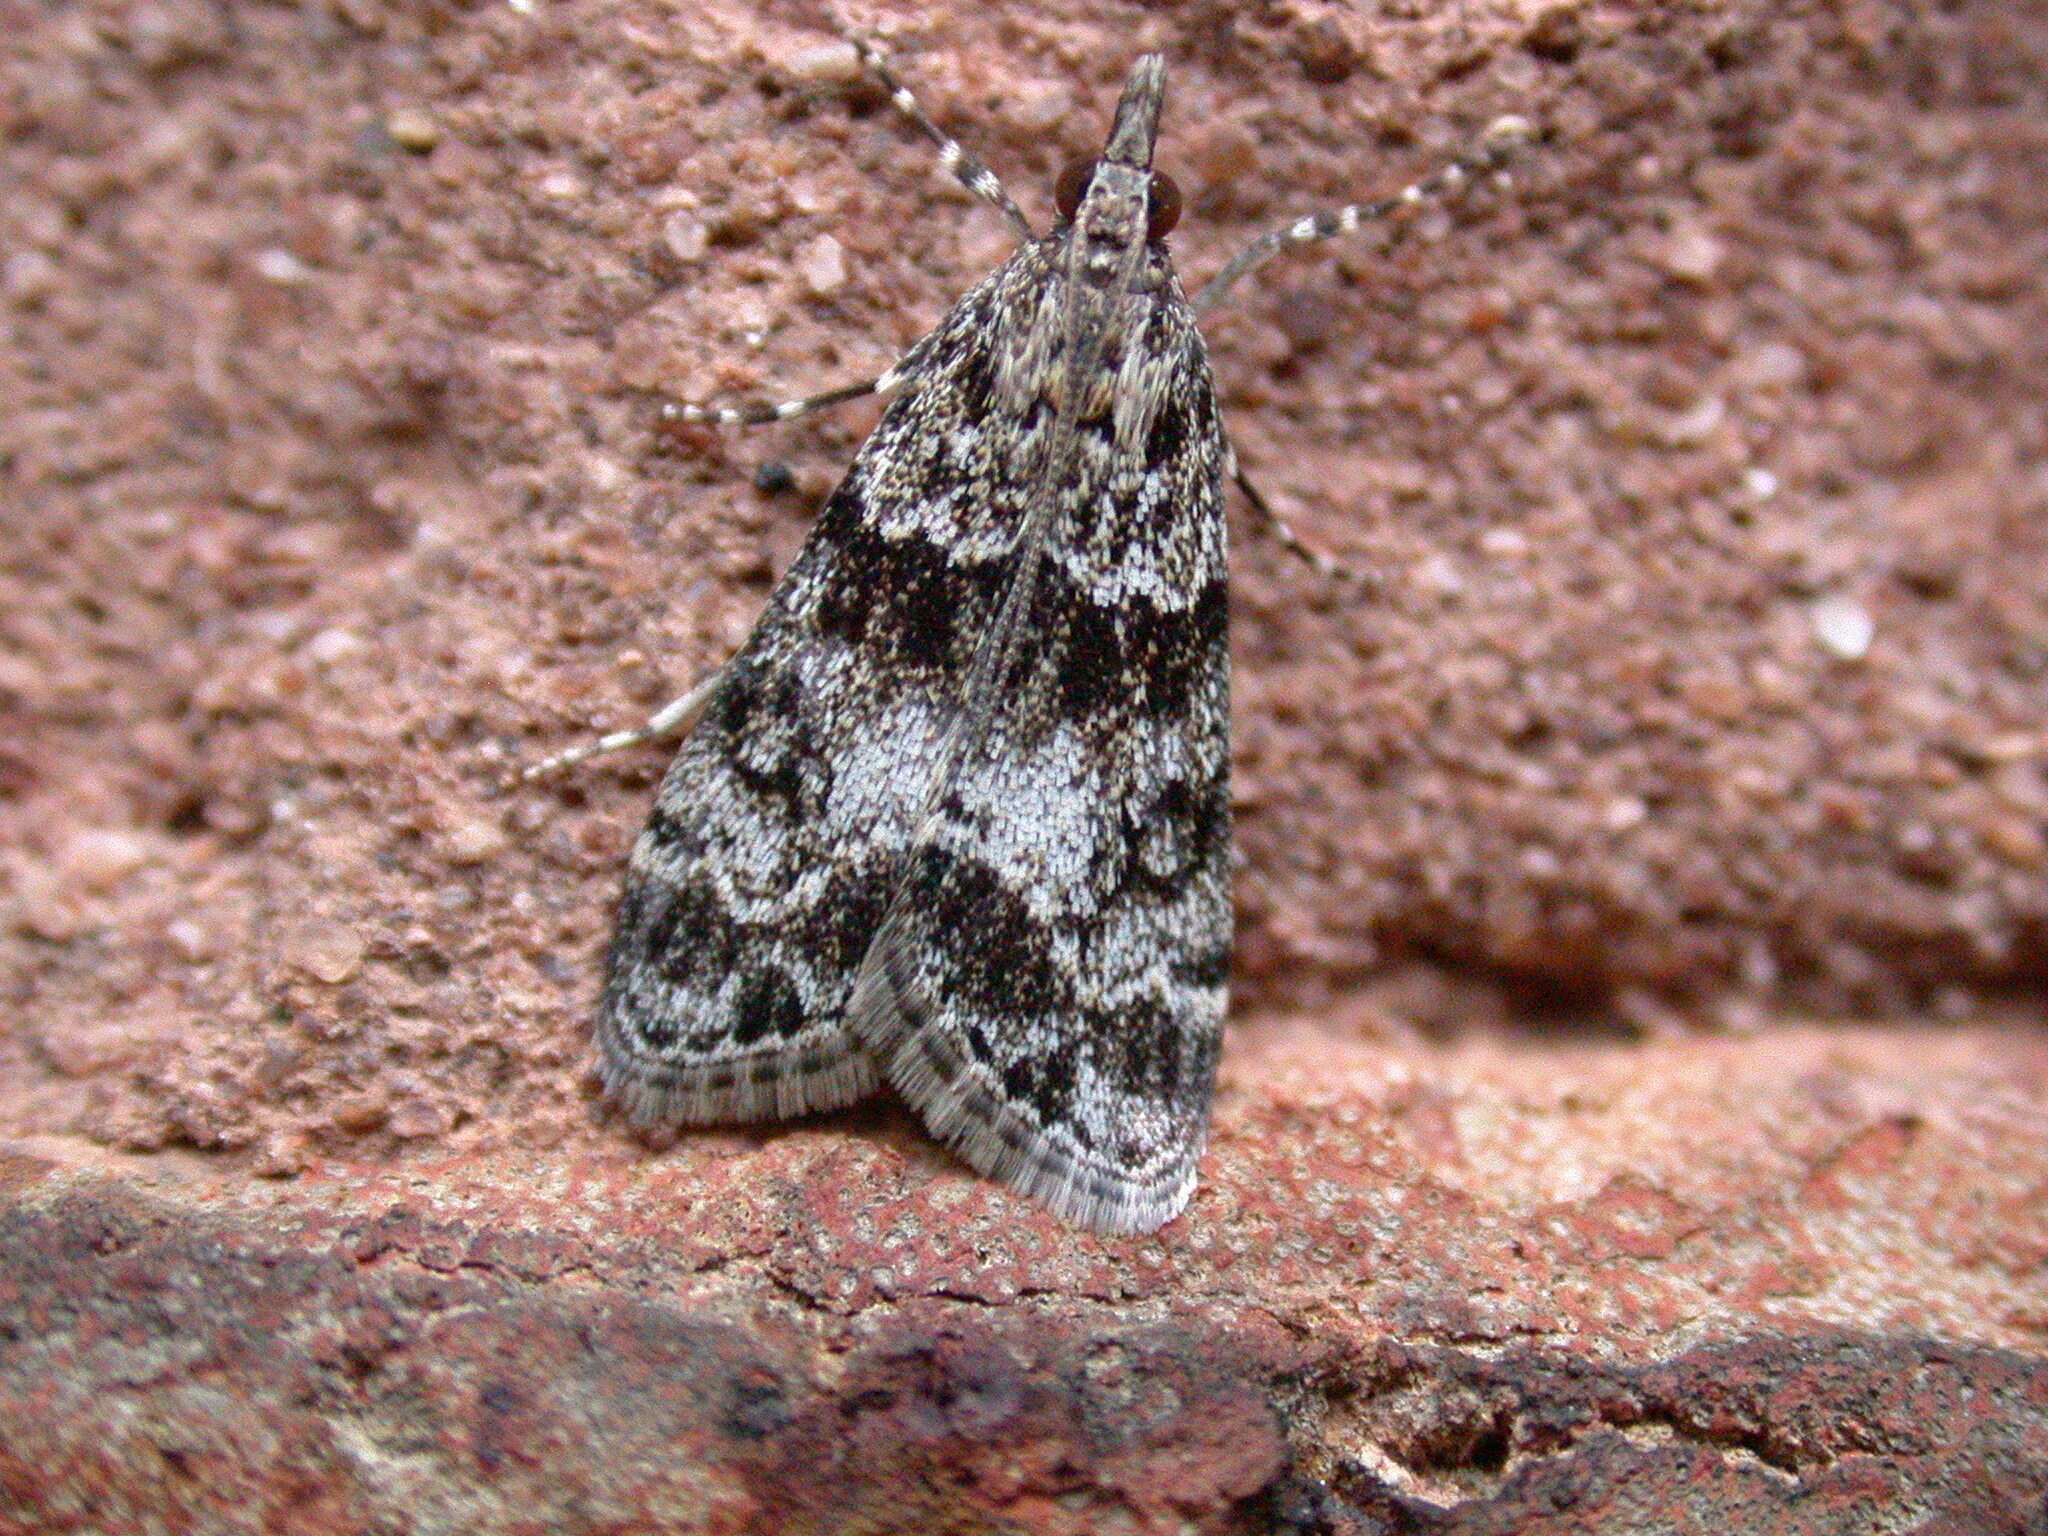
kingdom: Animalia
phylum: Arthropoda
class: Insecta
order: Lepidoptera
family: Crambidae
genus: Eudonia
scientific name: Eudonia mercurella
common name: Small grey
